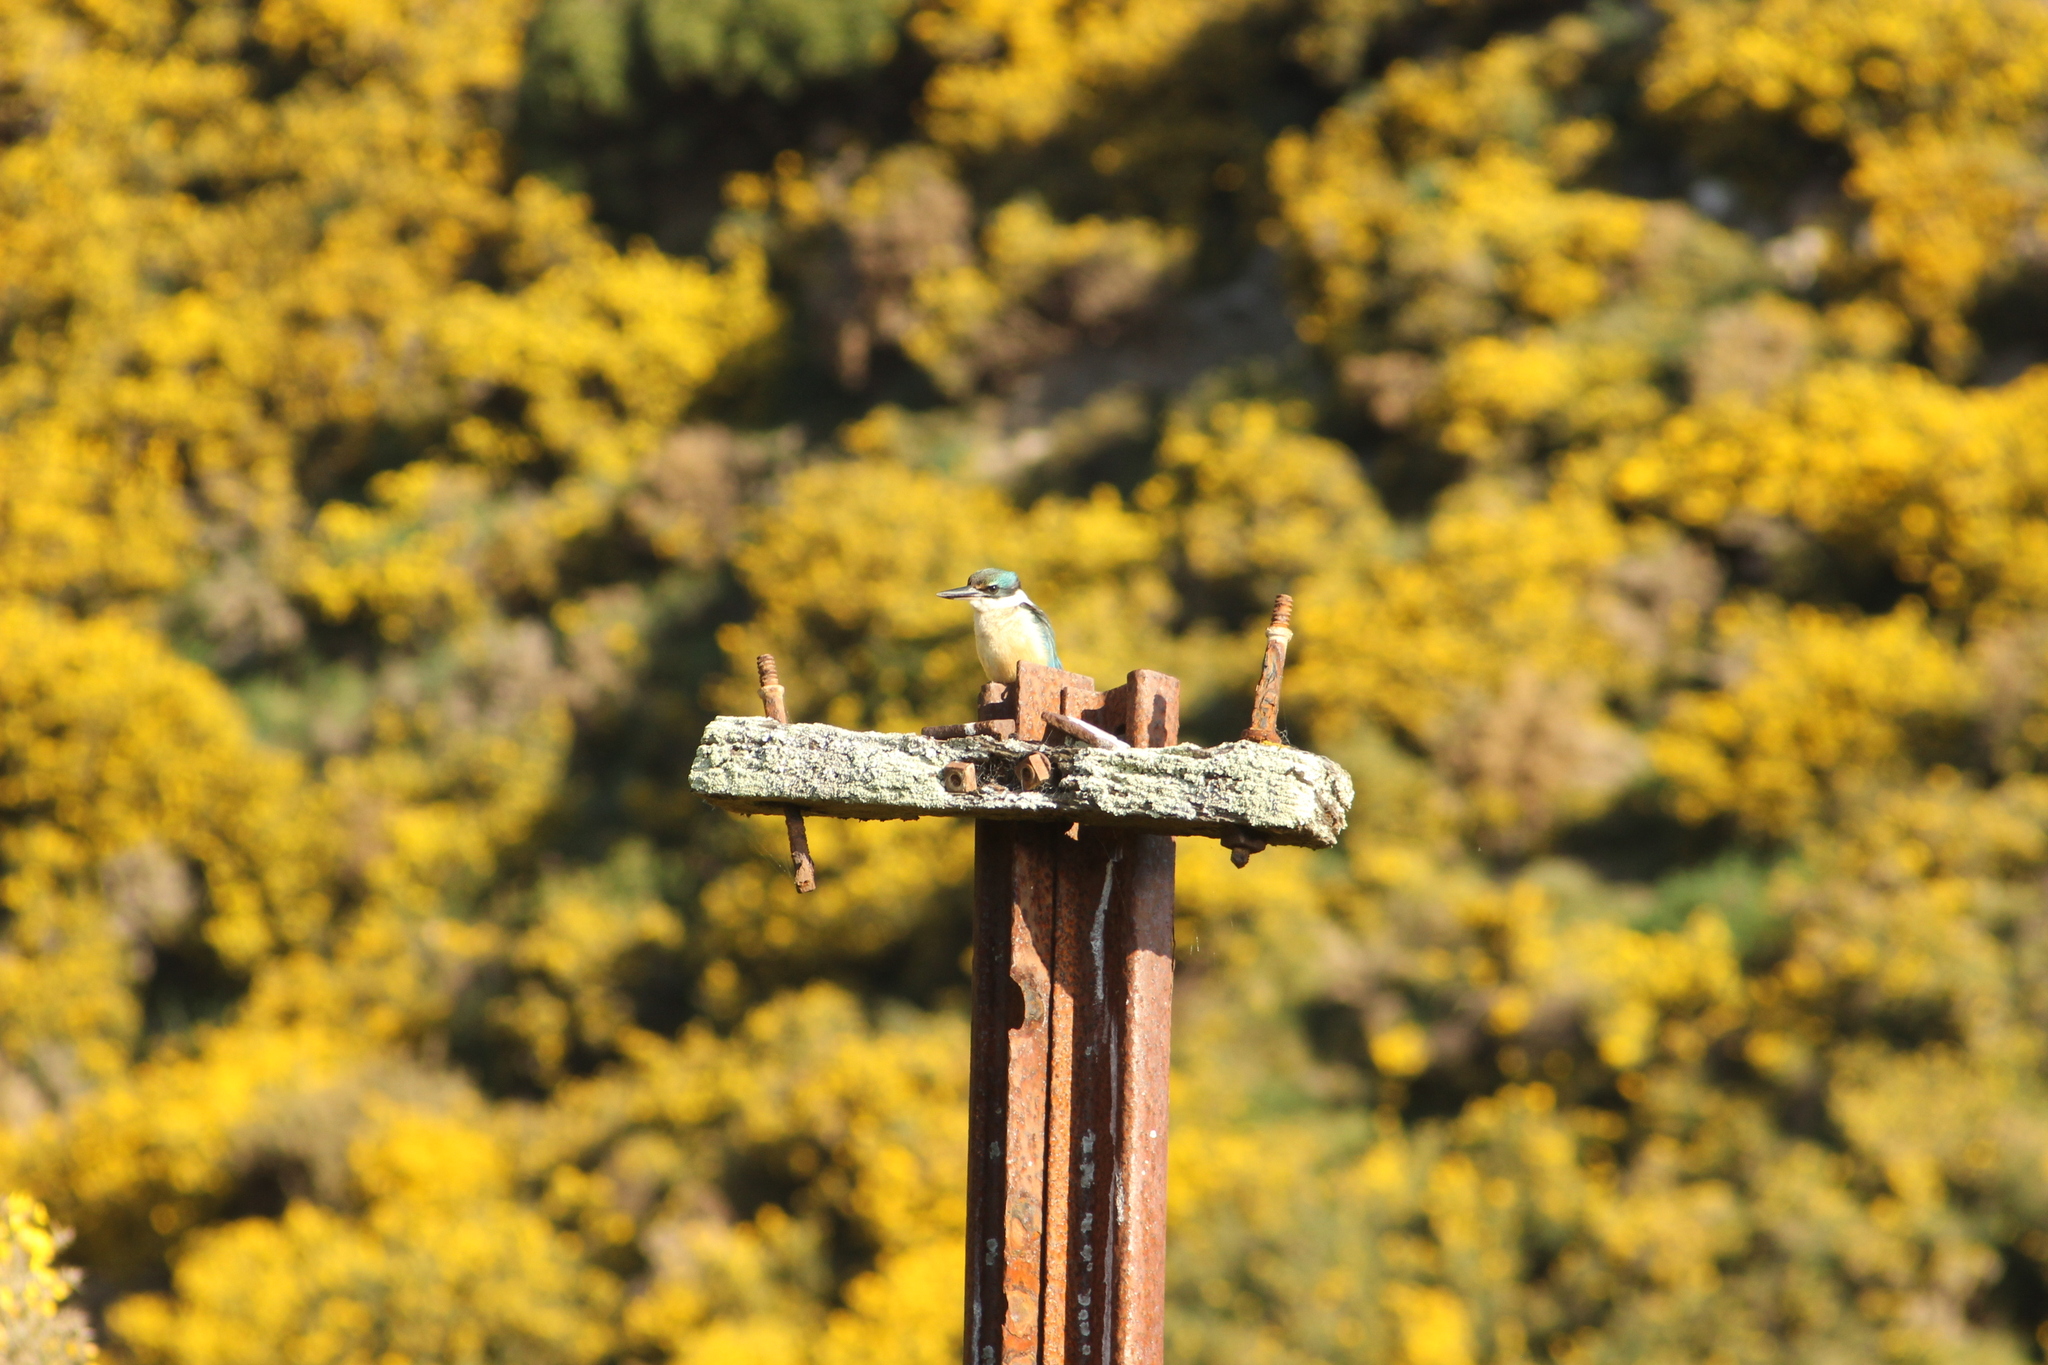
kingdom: Animalia
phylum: Chordata
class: Aves
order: Coraciiformes
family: Alcedinidae
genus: Todiramphus
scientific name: Todiramphus sanctus
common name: Sacred kingfisher
